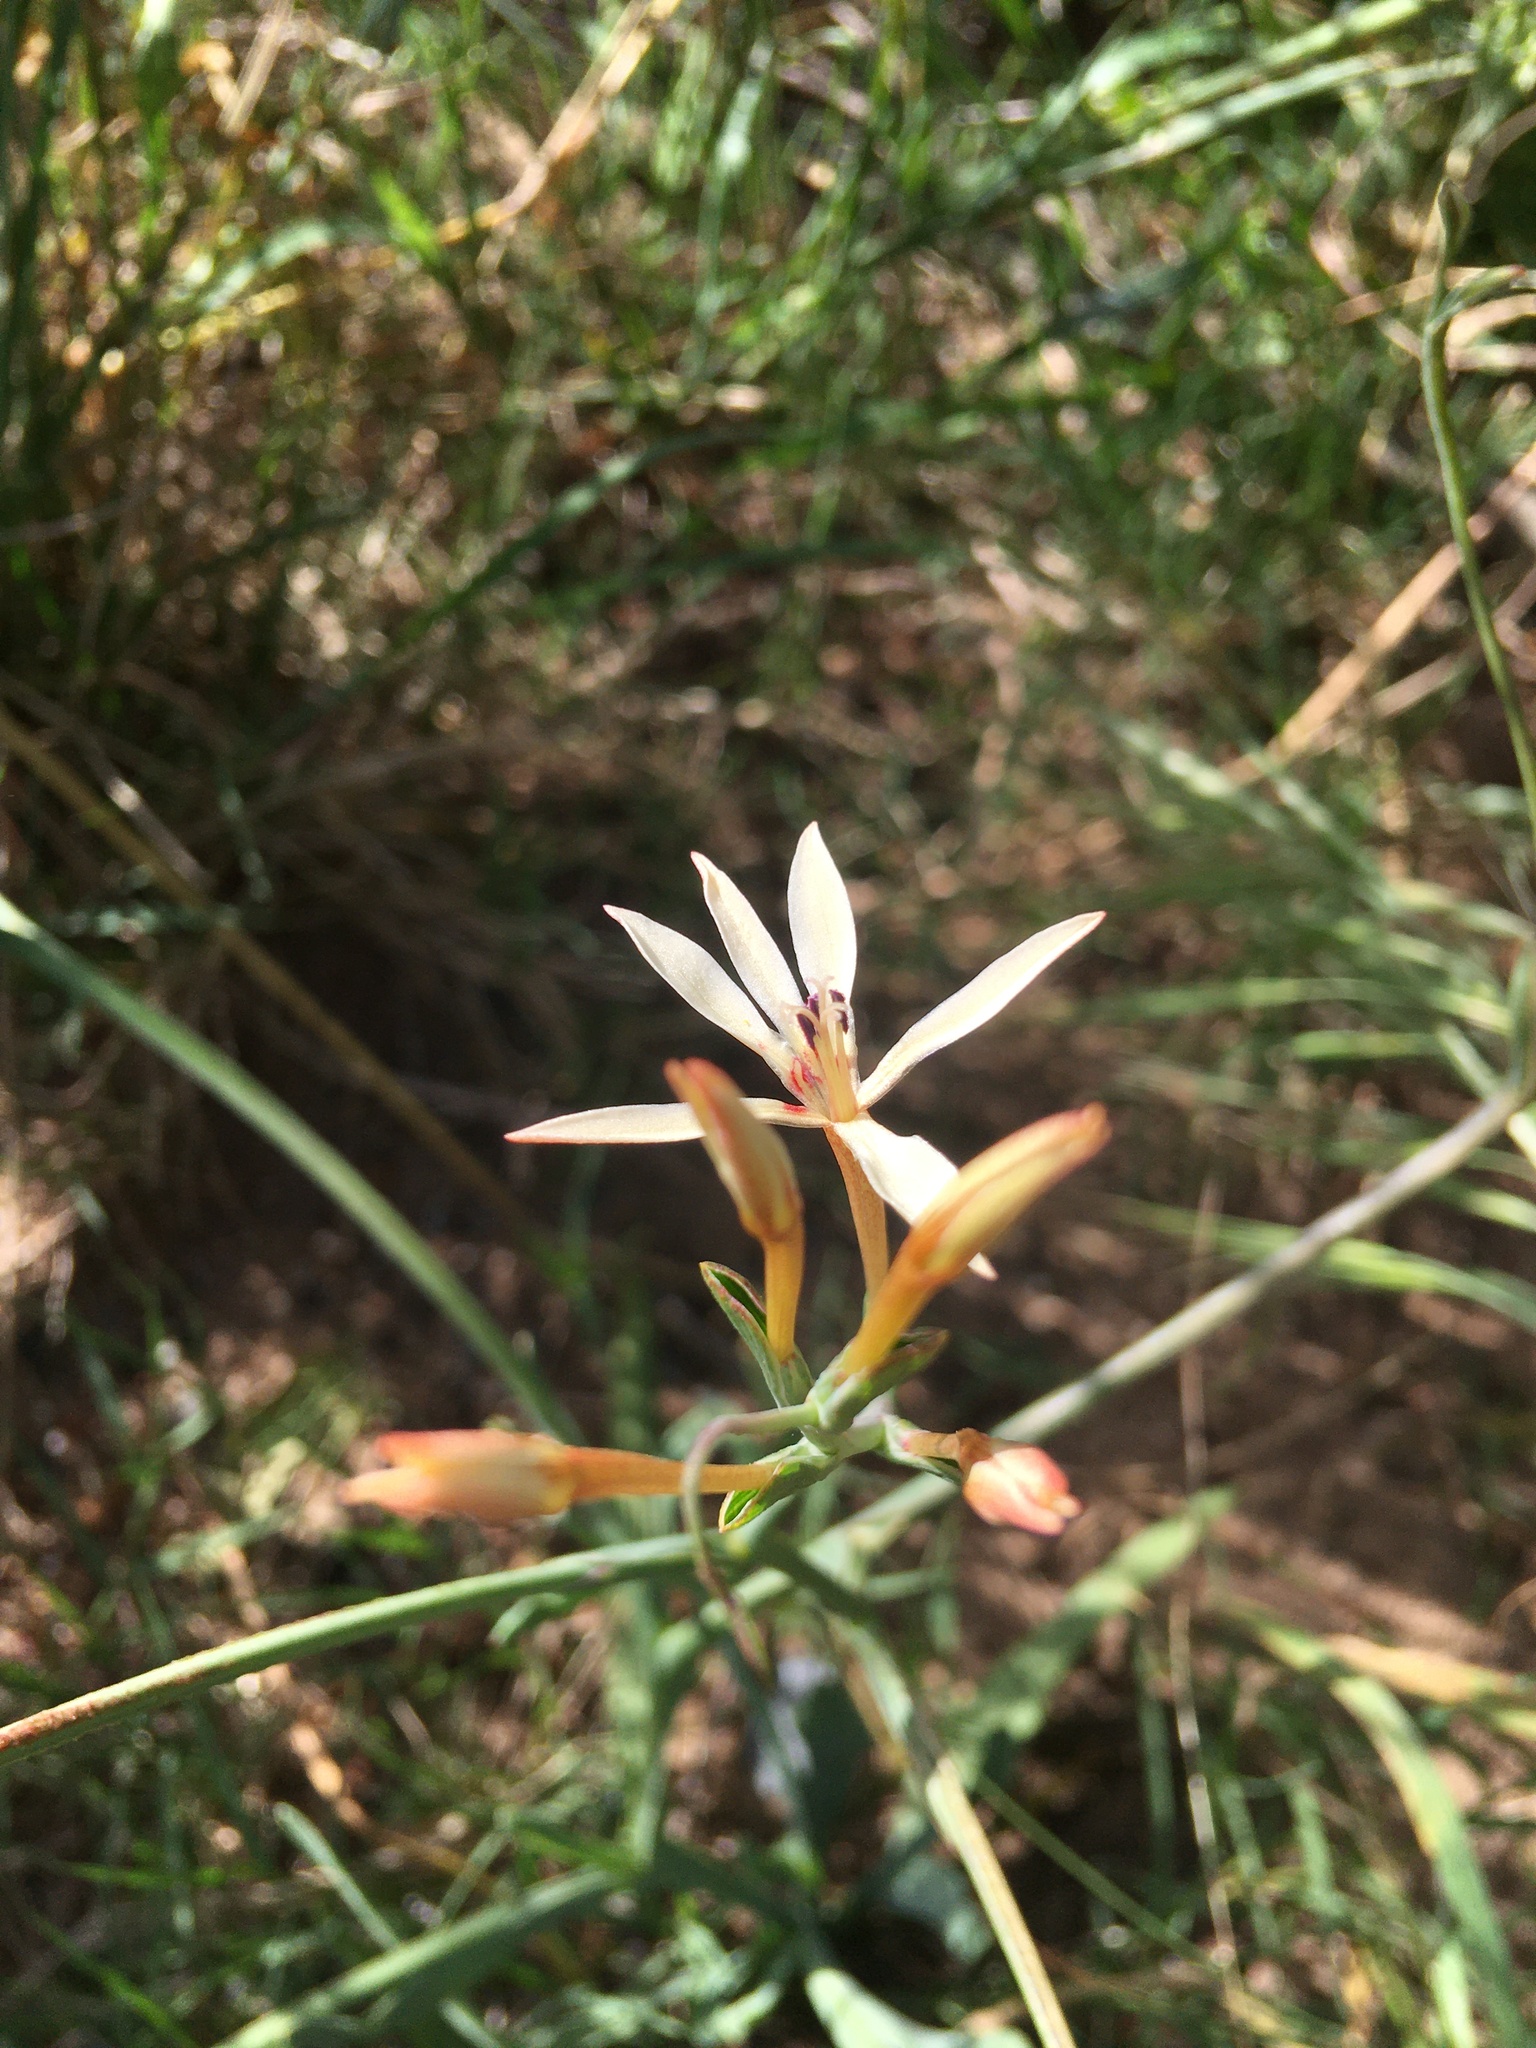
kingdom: Plantae
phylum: Tracheophyta
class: Liliopsida
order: Asparagales
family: Iridaceae
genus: Lapeirousia
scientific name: Lapeirousia anceps
